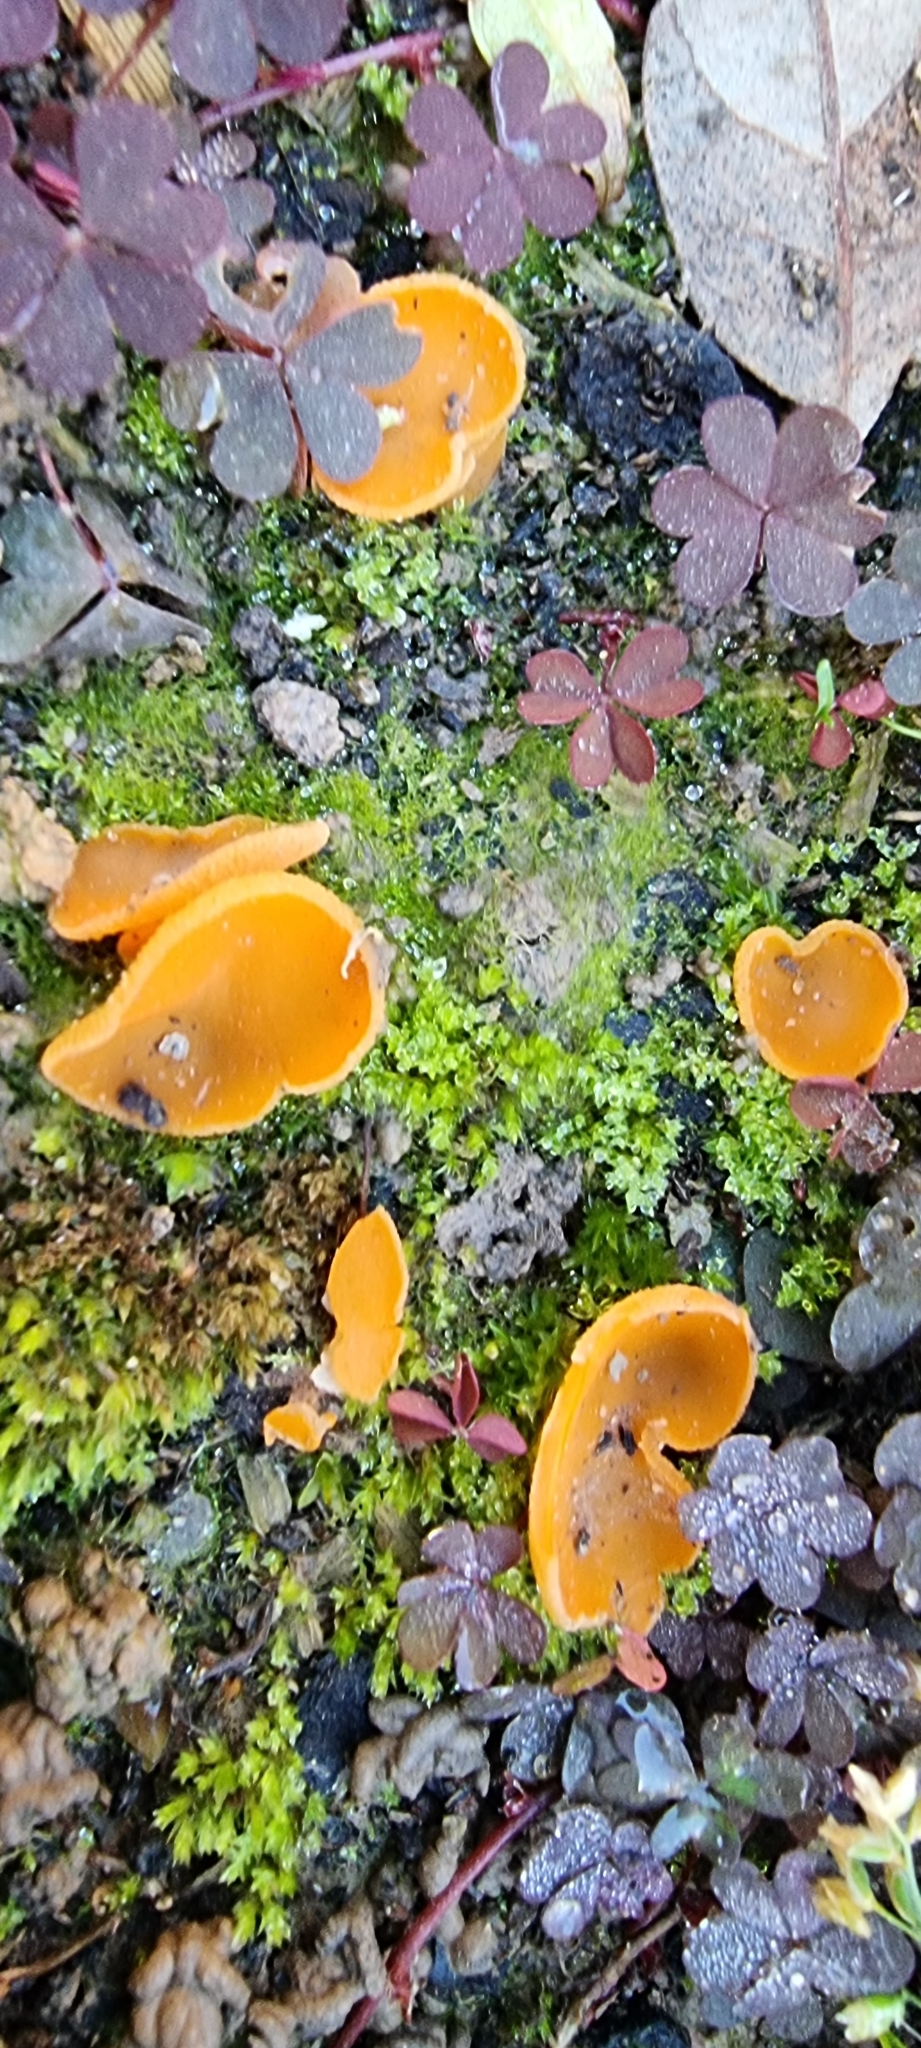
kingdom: Fungi
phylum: Ascomycota
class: Pezizomycetes
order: Pezizales
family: Pyronemataceae
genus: Aleuria
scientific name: Aleuria aurantia
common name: Orange peel fungus
